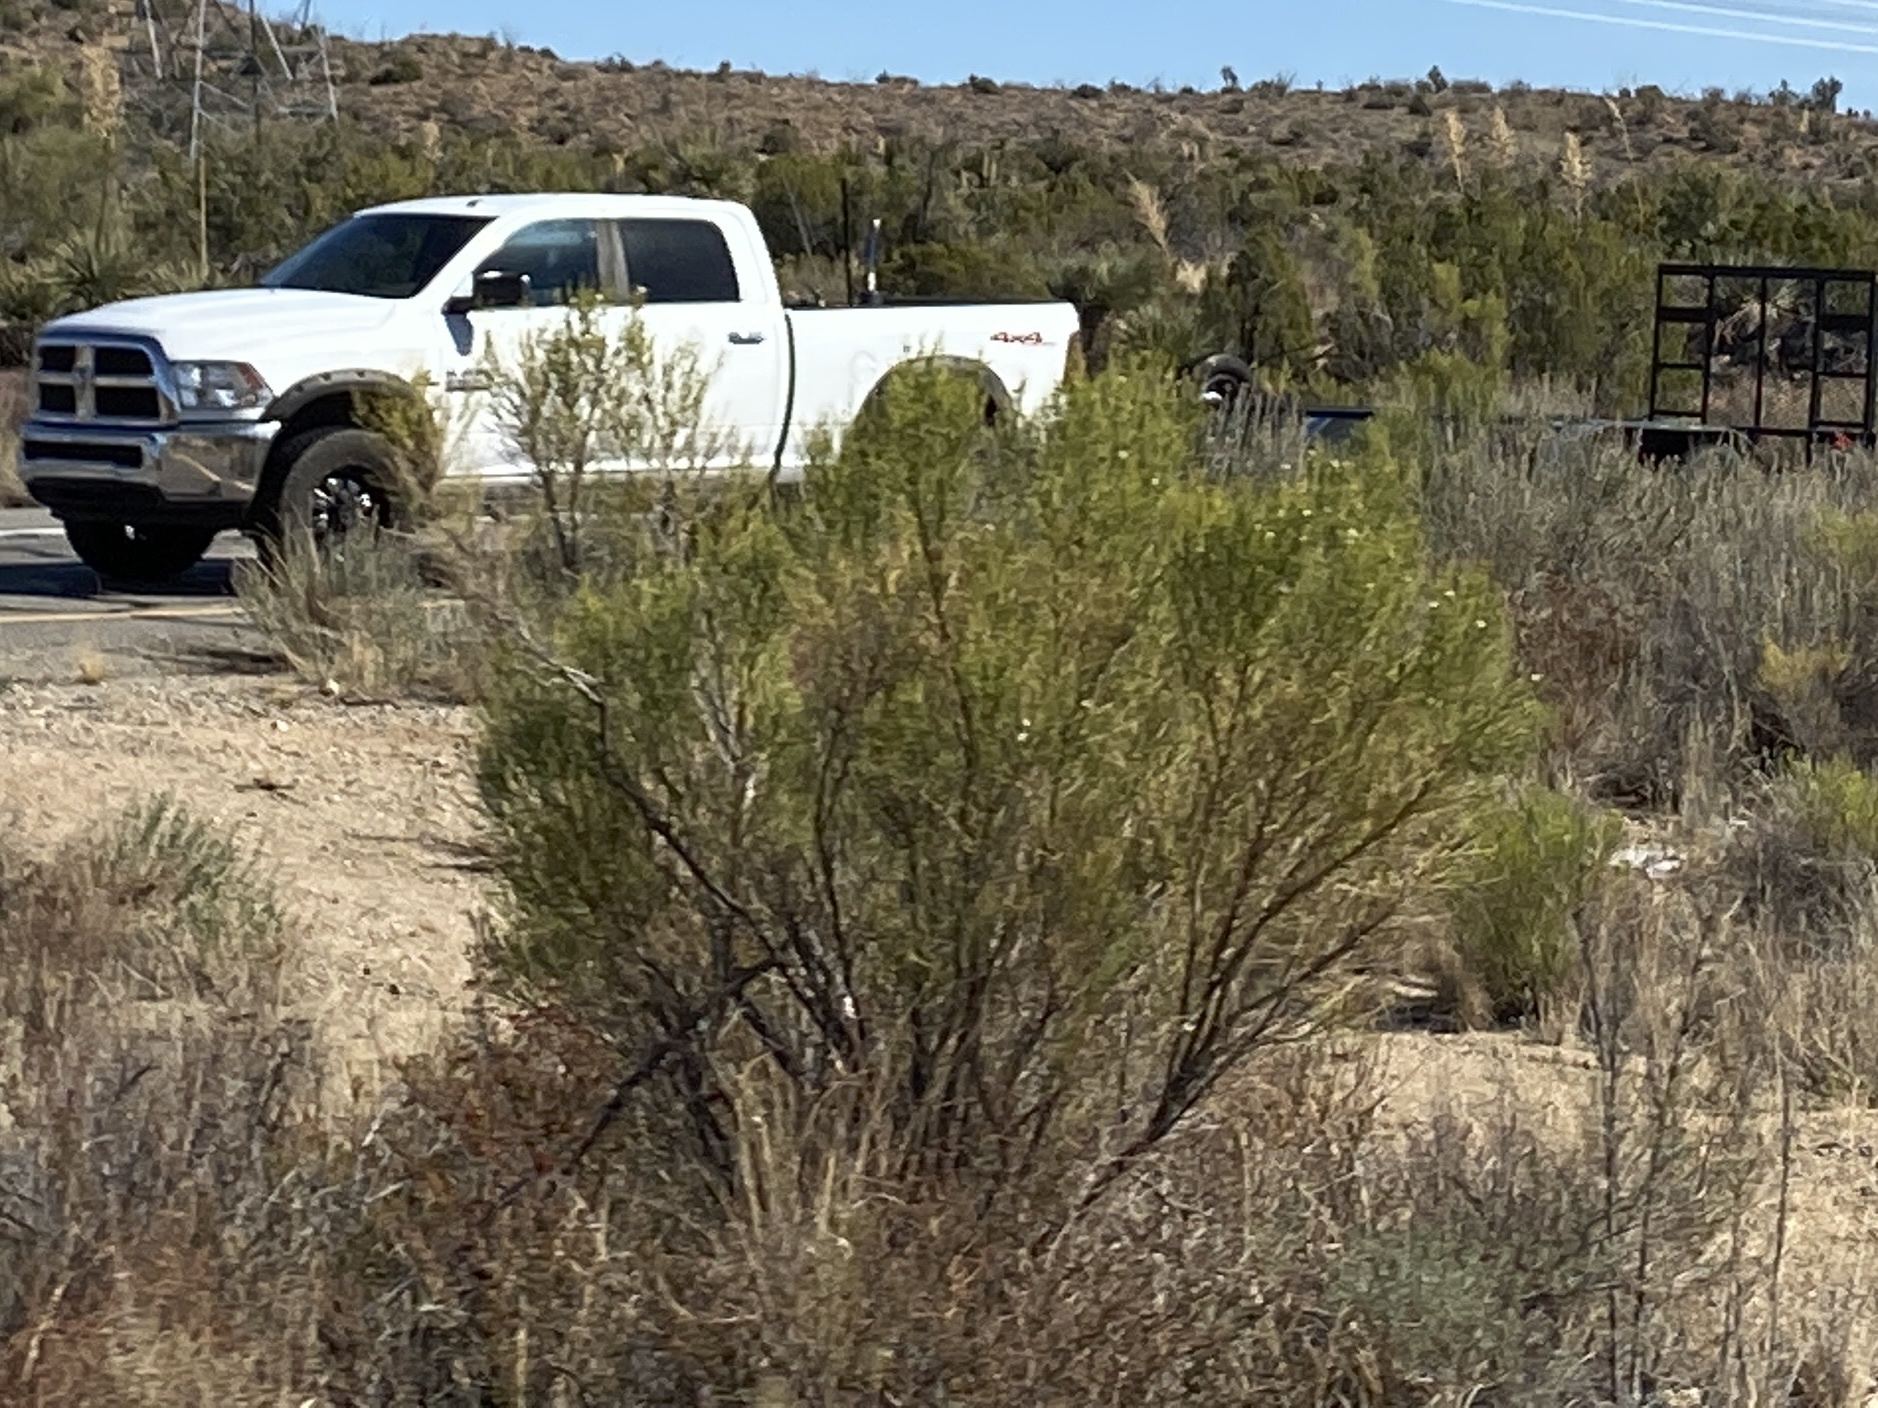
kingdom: Plantae
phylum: Tracheophyta
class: Magnoliopsida
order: Asterales
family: Asteraceae
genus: Baccharis
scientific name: Baccharis sarothroides
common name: Desert-broom
